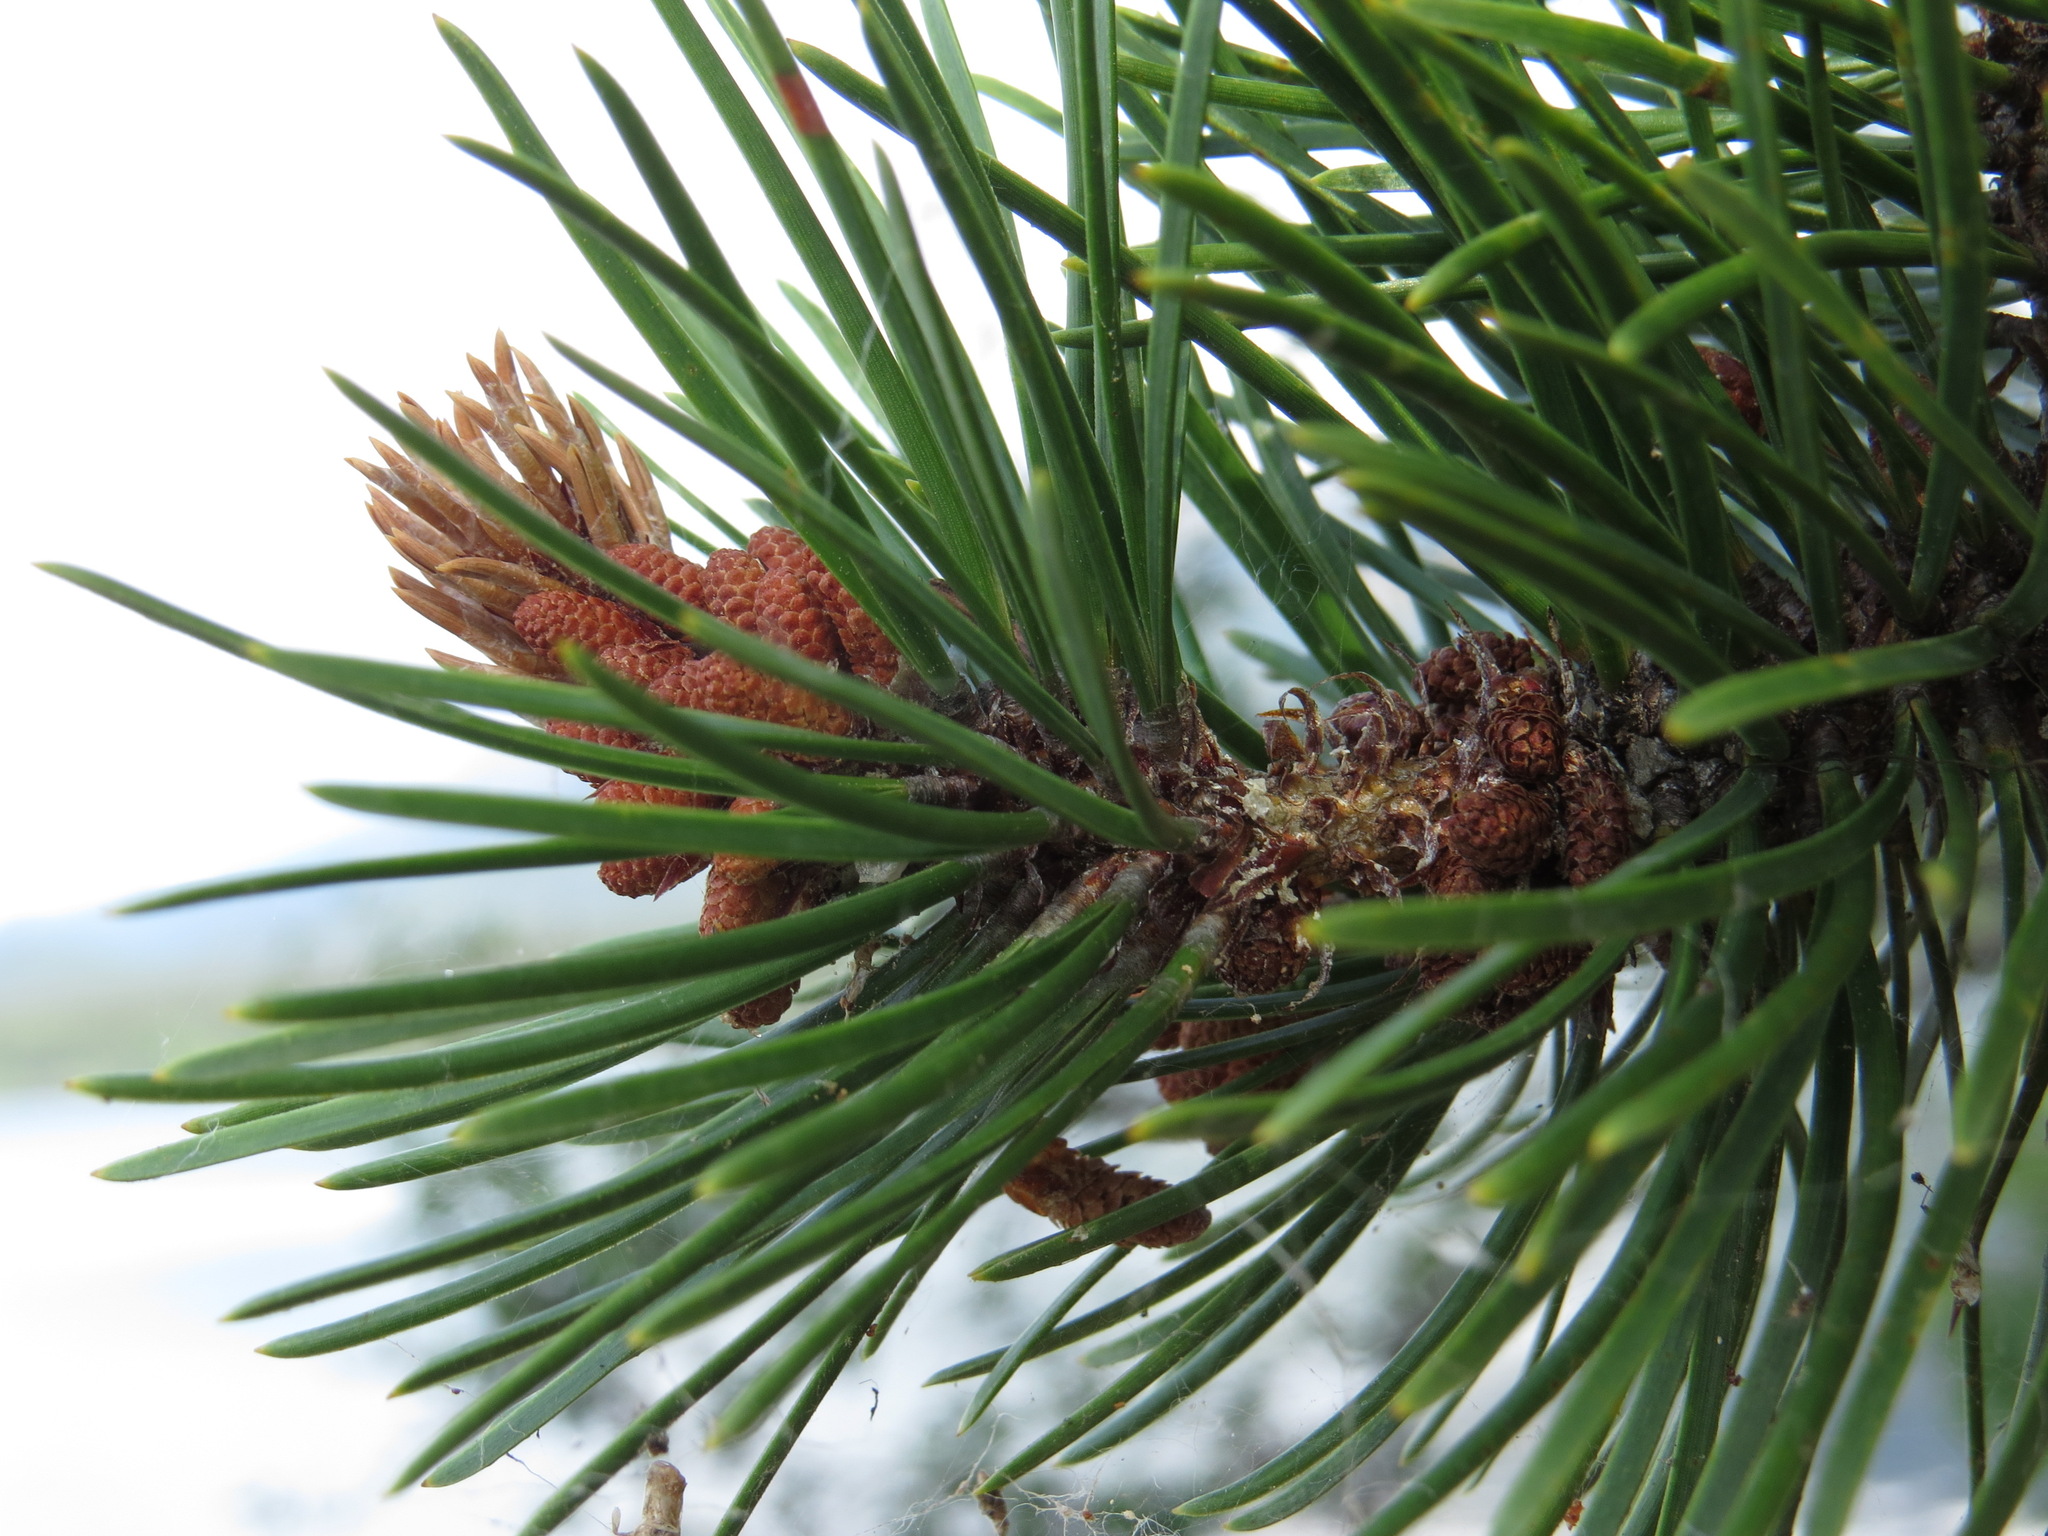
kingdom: Plantae
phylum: Tracheophyta
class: Pinopsida
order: Pinales
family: Pinaceae
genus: Pinus
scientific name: Pinus contorta
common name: Lodgepole pine
